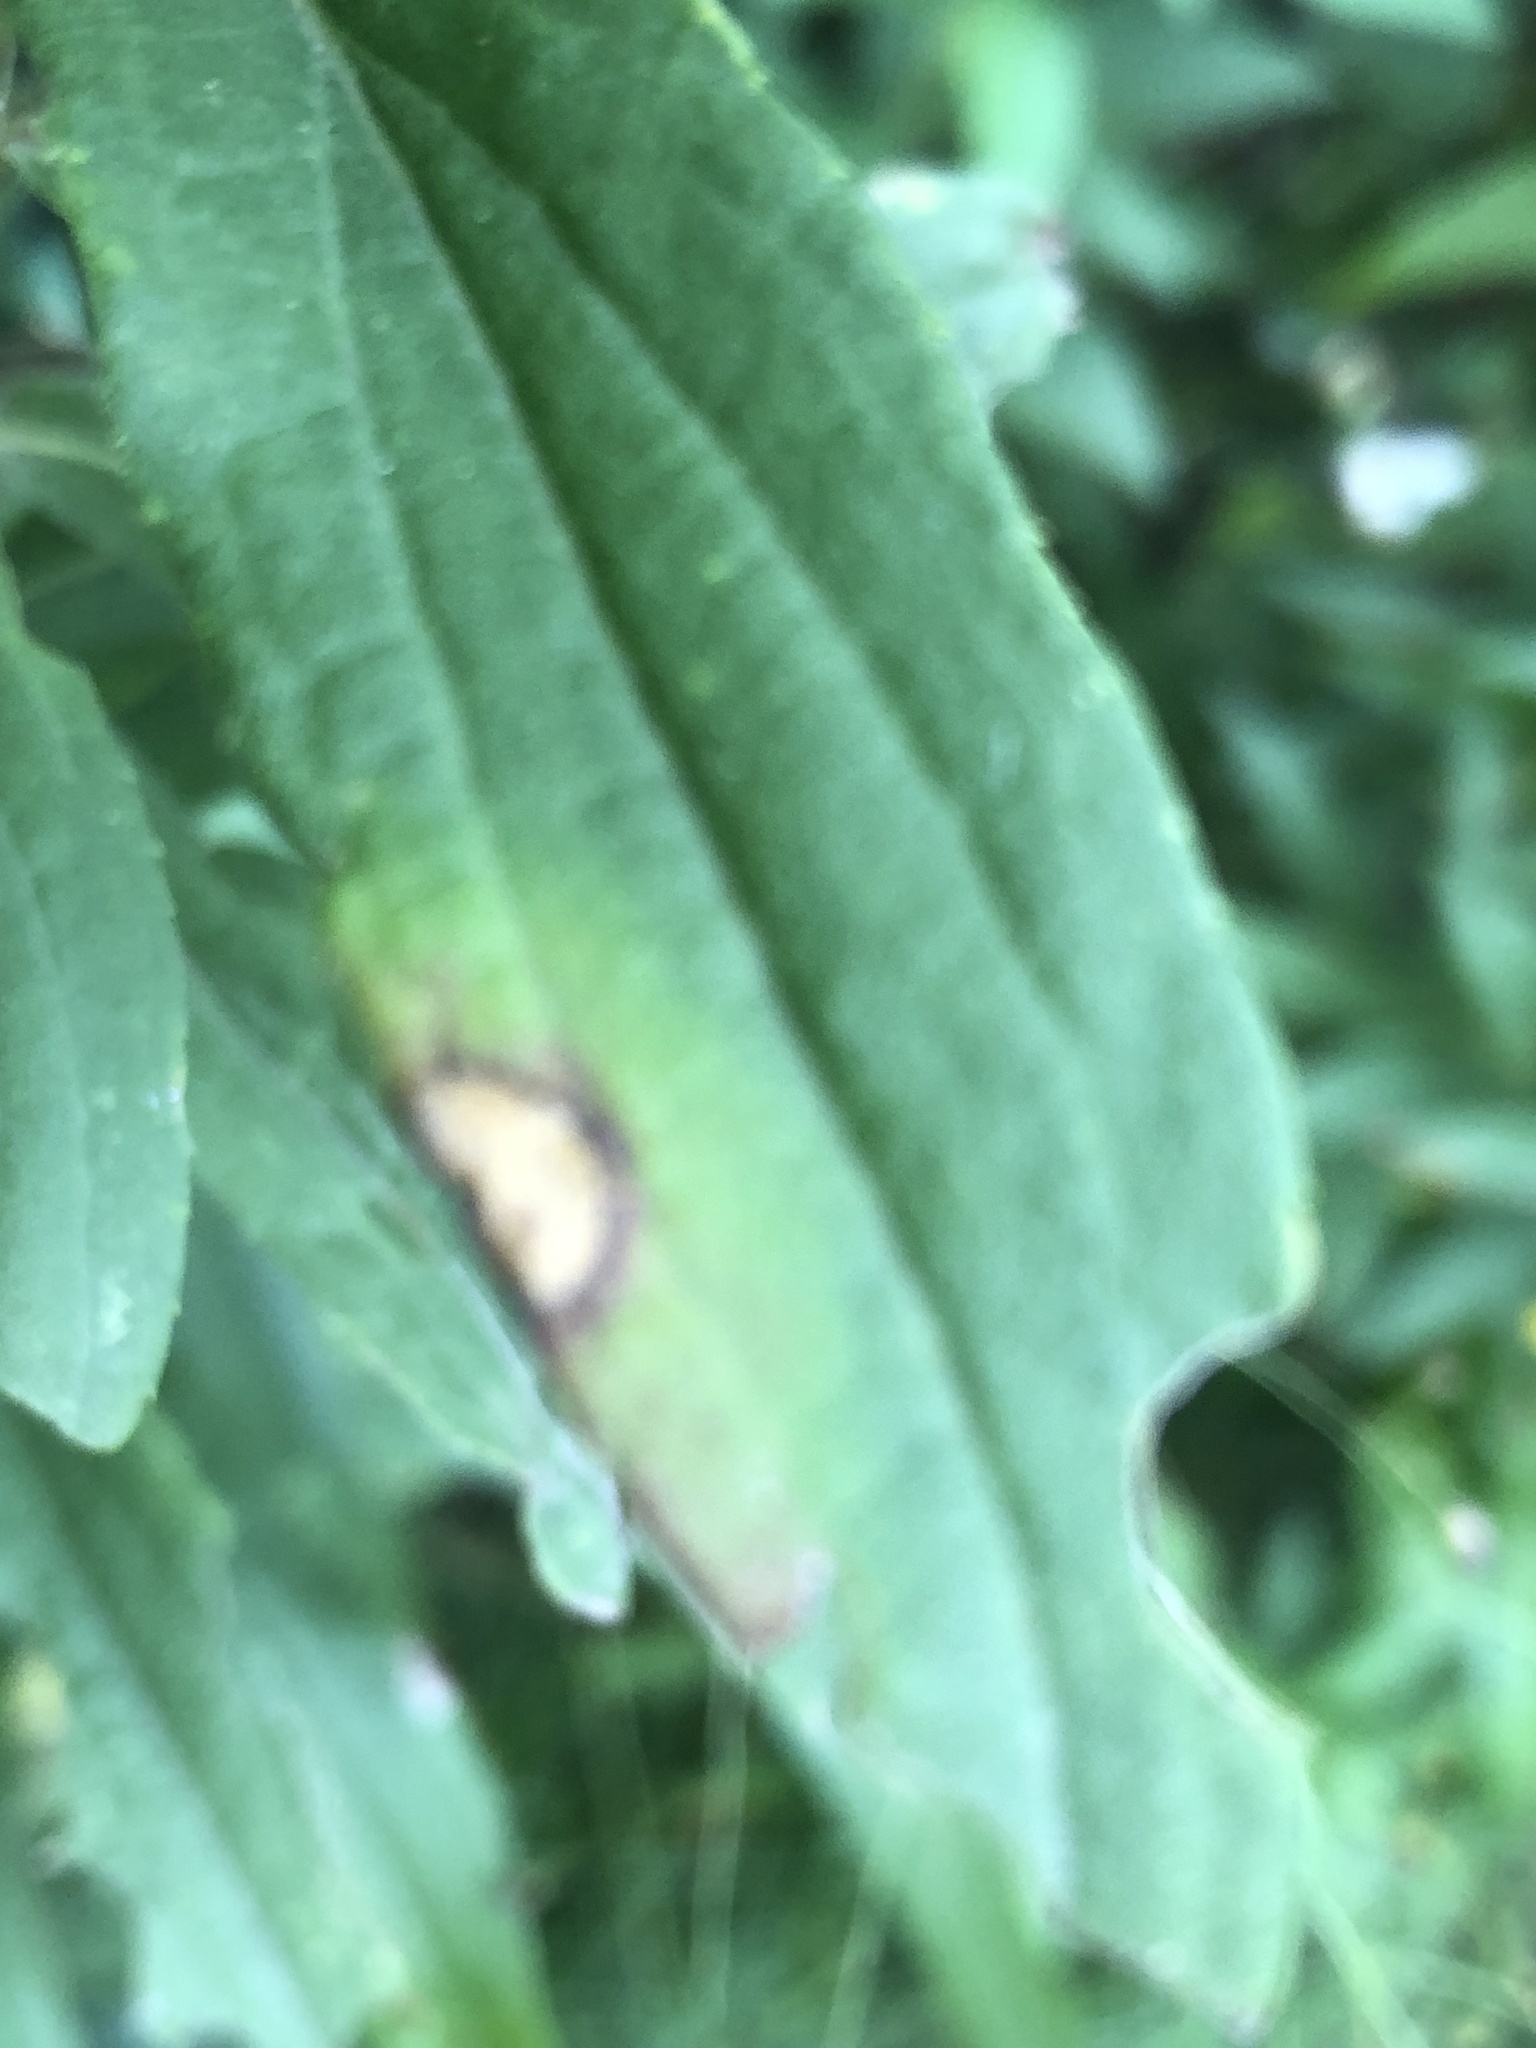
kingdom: Animalia
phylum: Arthropoda
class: Insecta
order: Diptera
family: Cecidomyiidae
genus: Asteromyia
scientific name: Asteromyia carbonifera
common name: Carbonifera goldenrod gall midge
